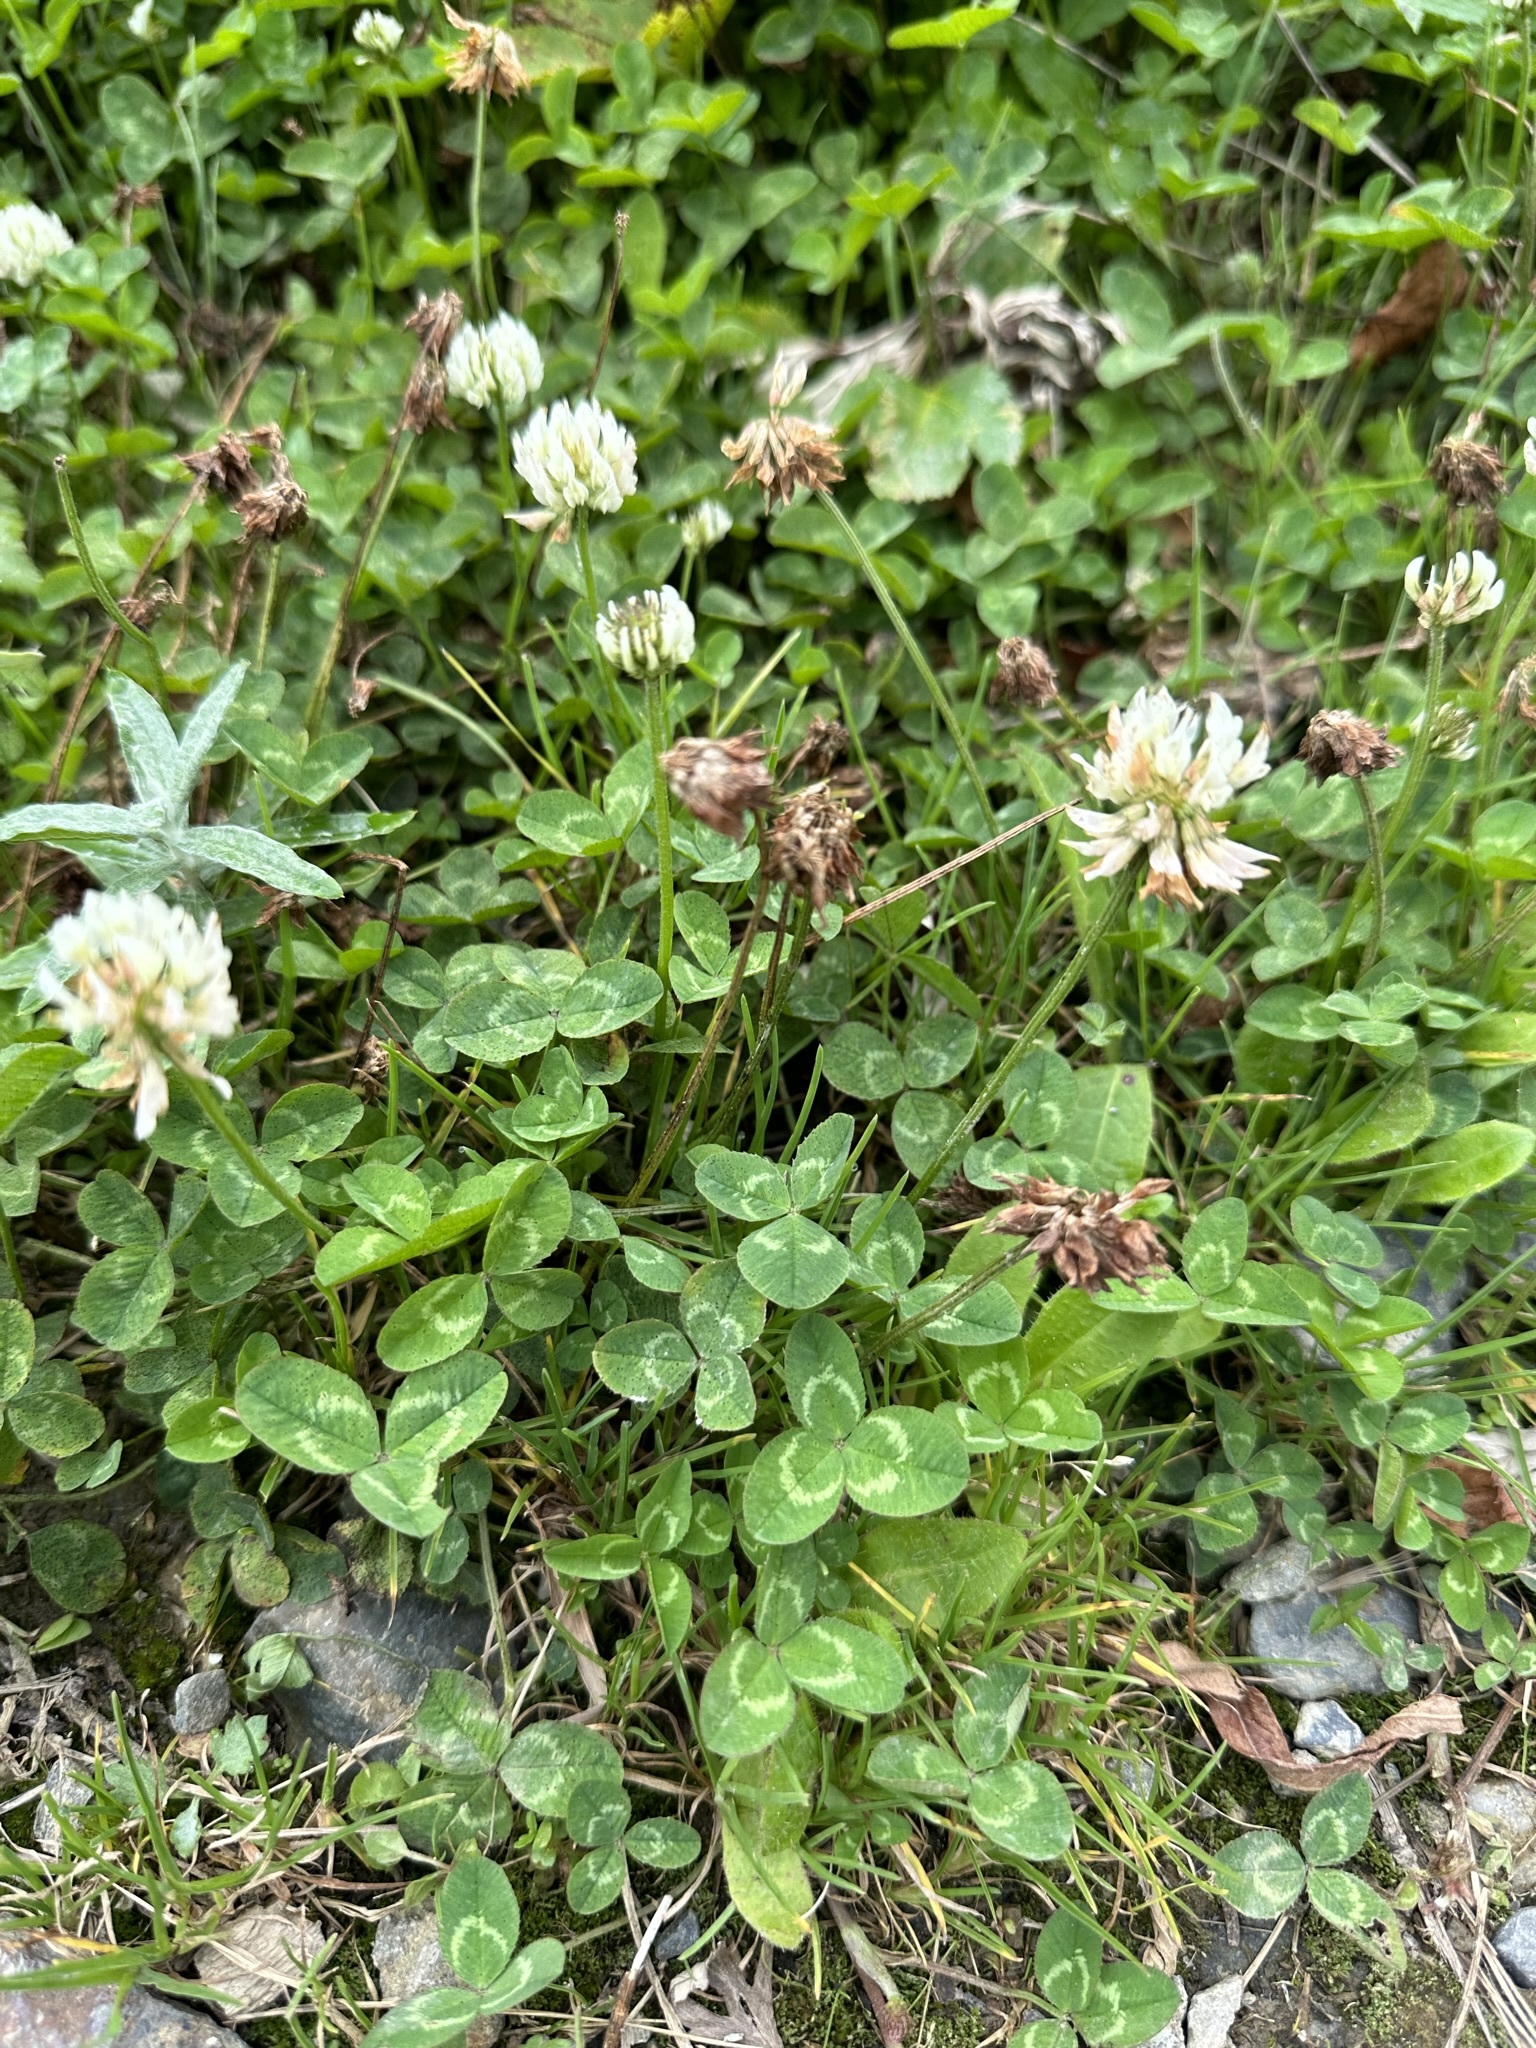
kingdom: Plantae
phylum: Tracheophyta
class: Magnoliopsida
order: Fabales
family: Fabaceae
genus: Trifolium
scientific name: Trifolium repens
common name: White clover
